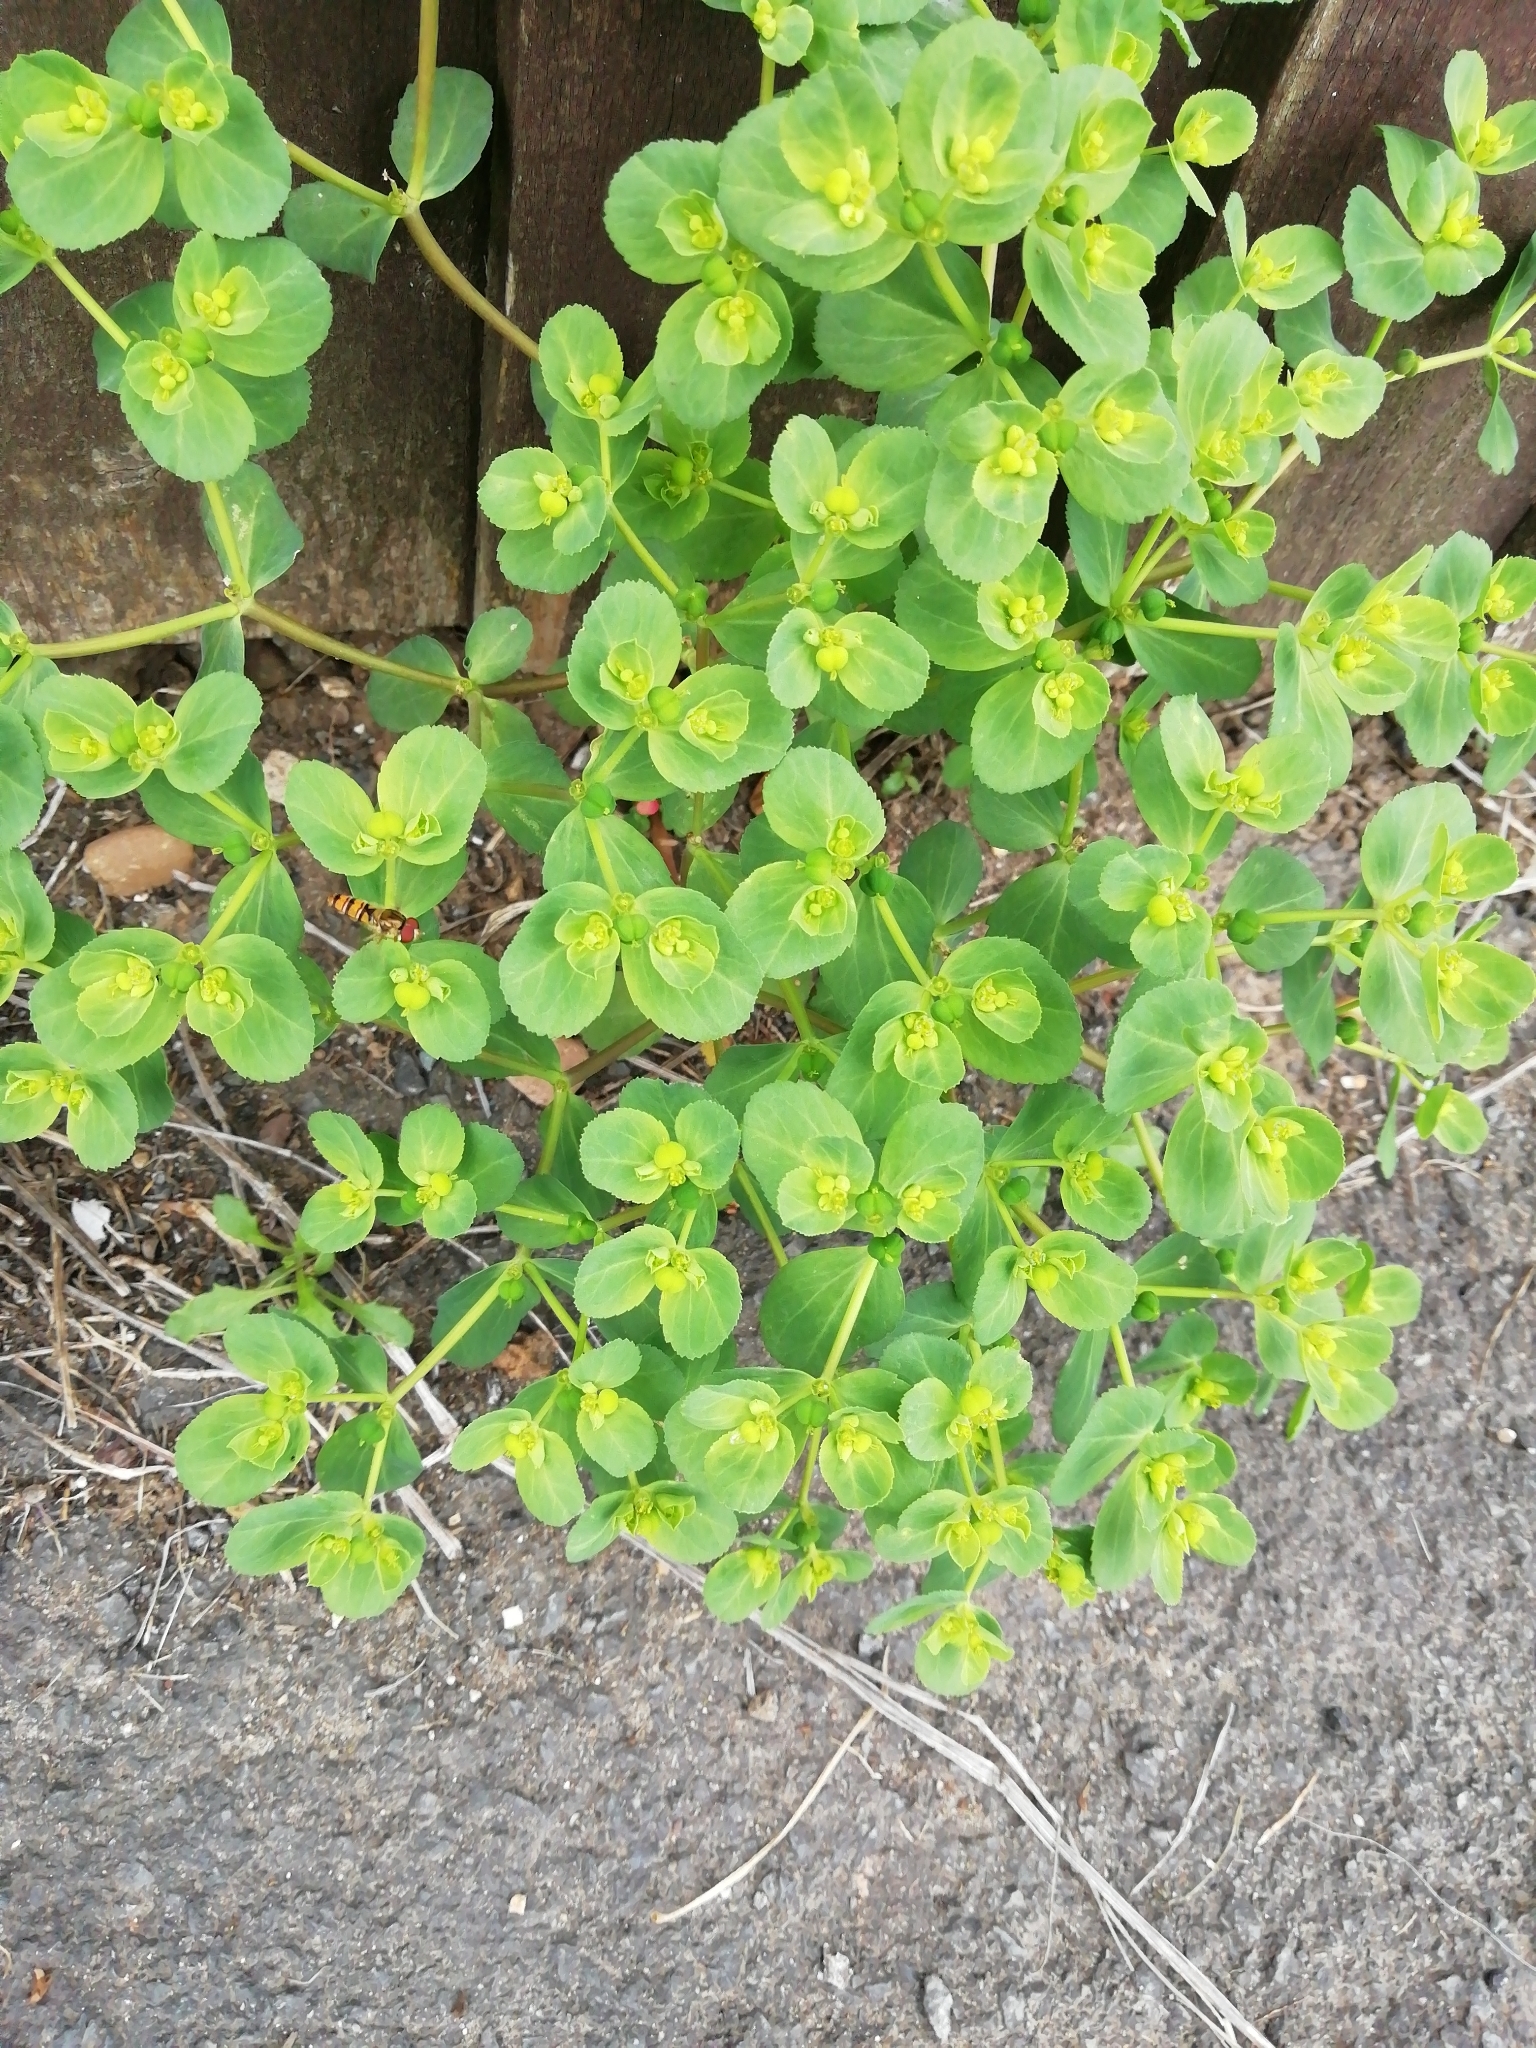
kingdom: Plantae
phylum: Tracheophyta
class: Magnoliopsida
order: Malpighiales
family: Euphorbiaceae
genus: Euphorbia
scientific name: Euphorbia helioscopia
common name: Sun spurge
